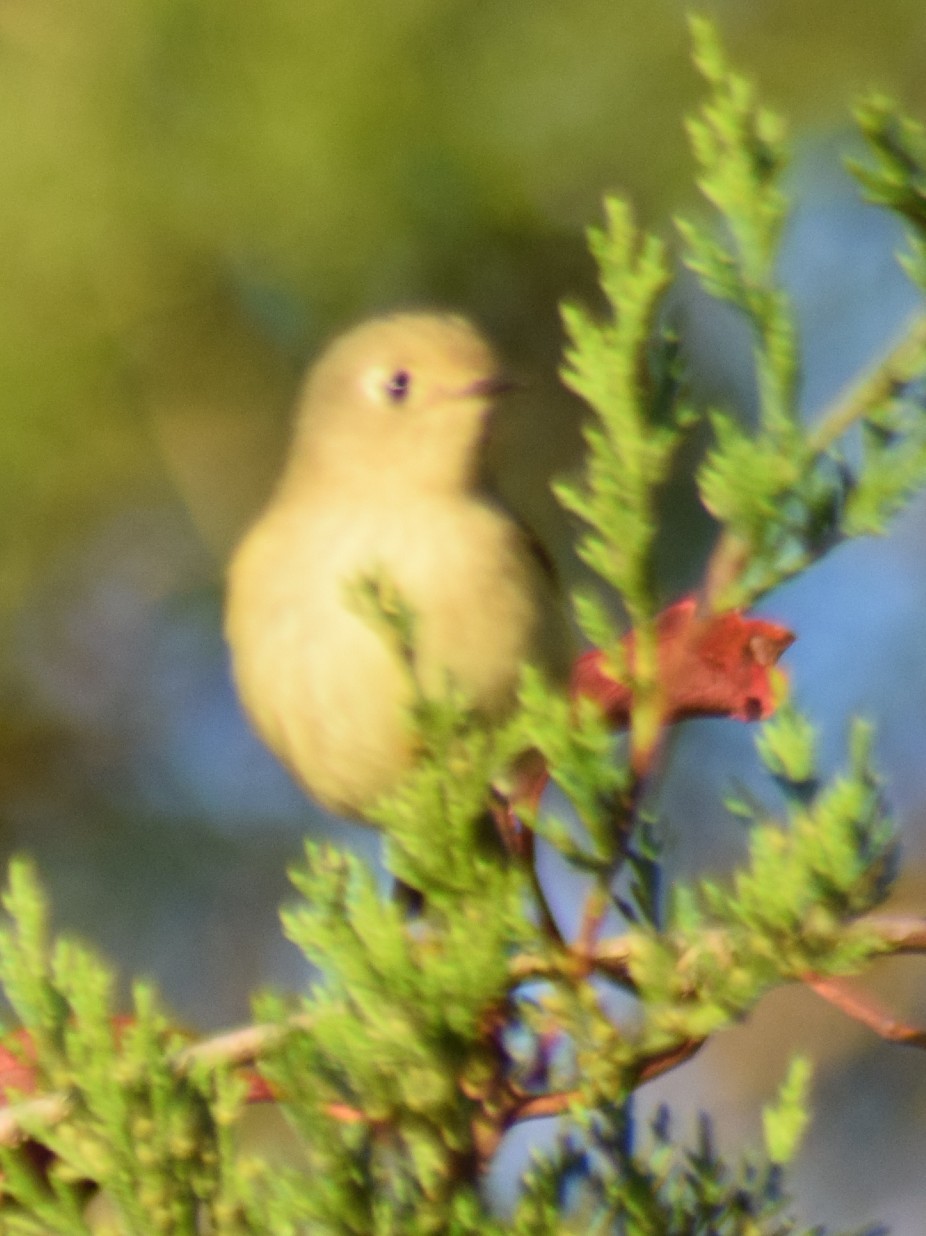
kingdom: Animalia
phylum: Chordata
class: Aves
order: Passeriformes
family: Regulidae
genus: Regulus
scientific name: Regulus calendula
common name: Ruby-crowned kinglet
